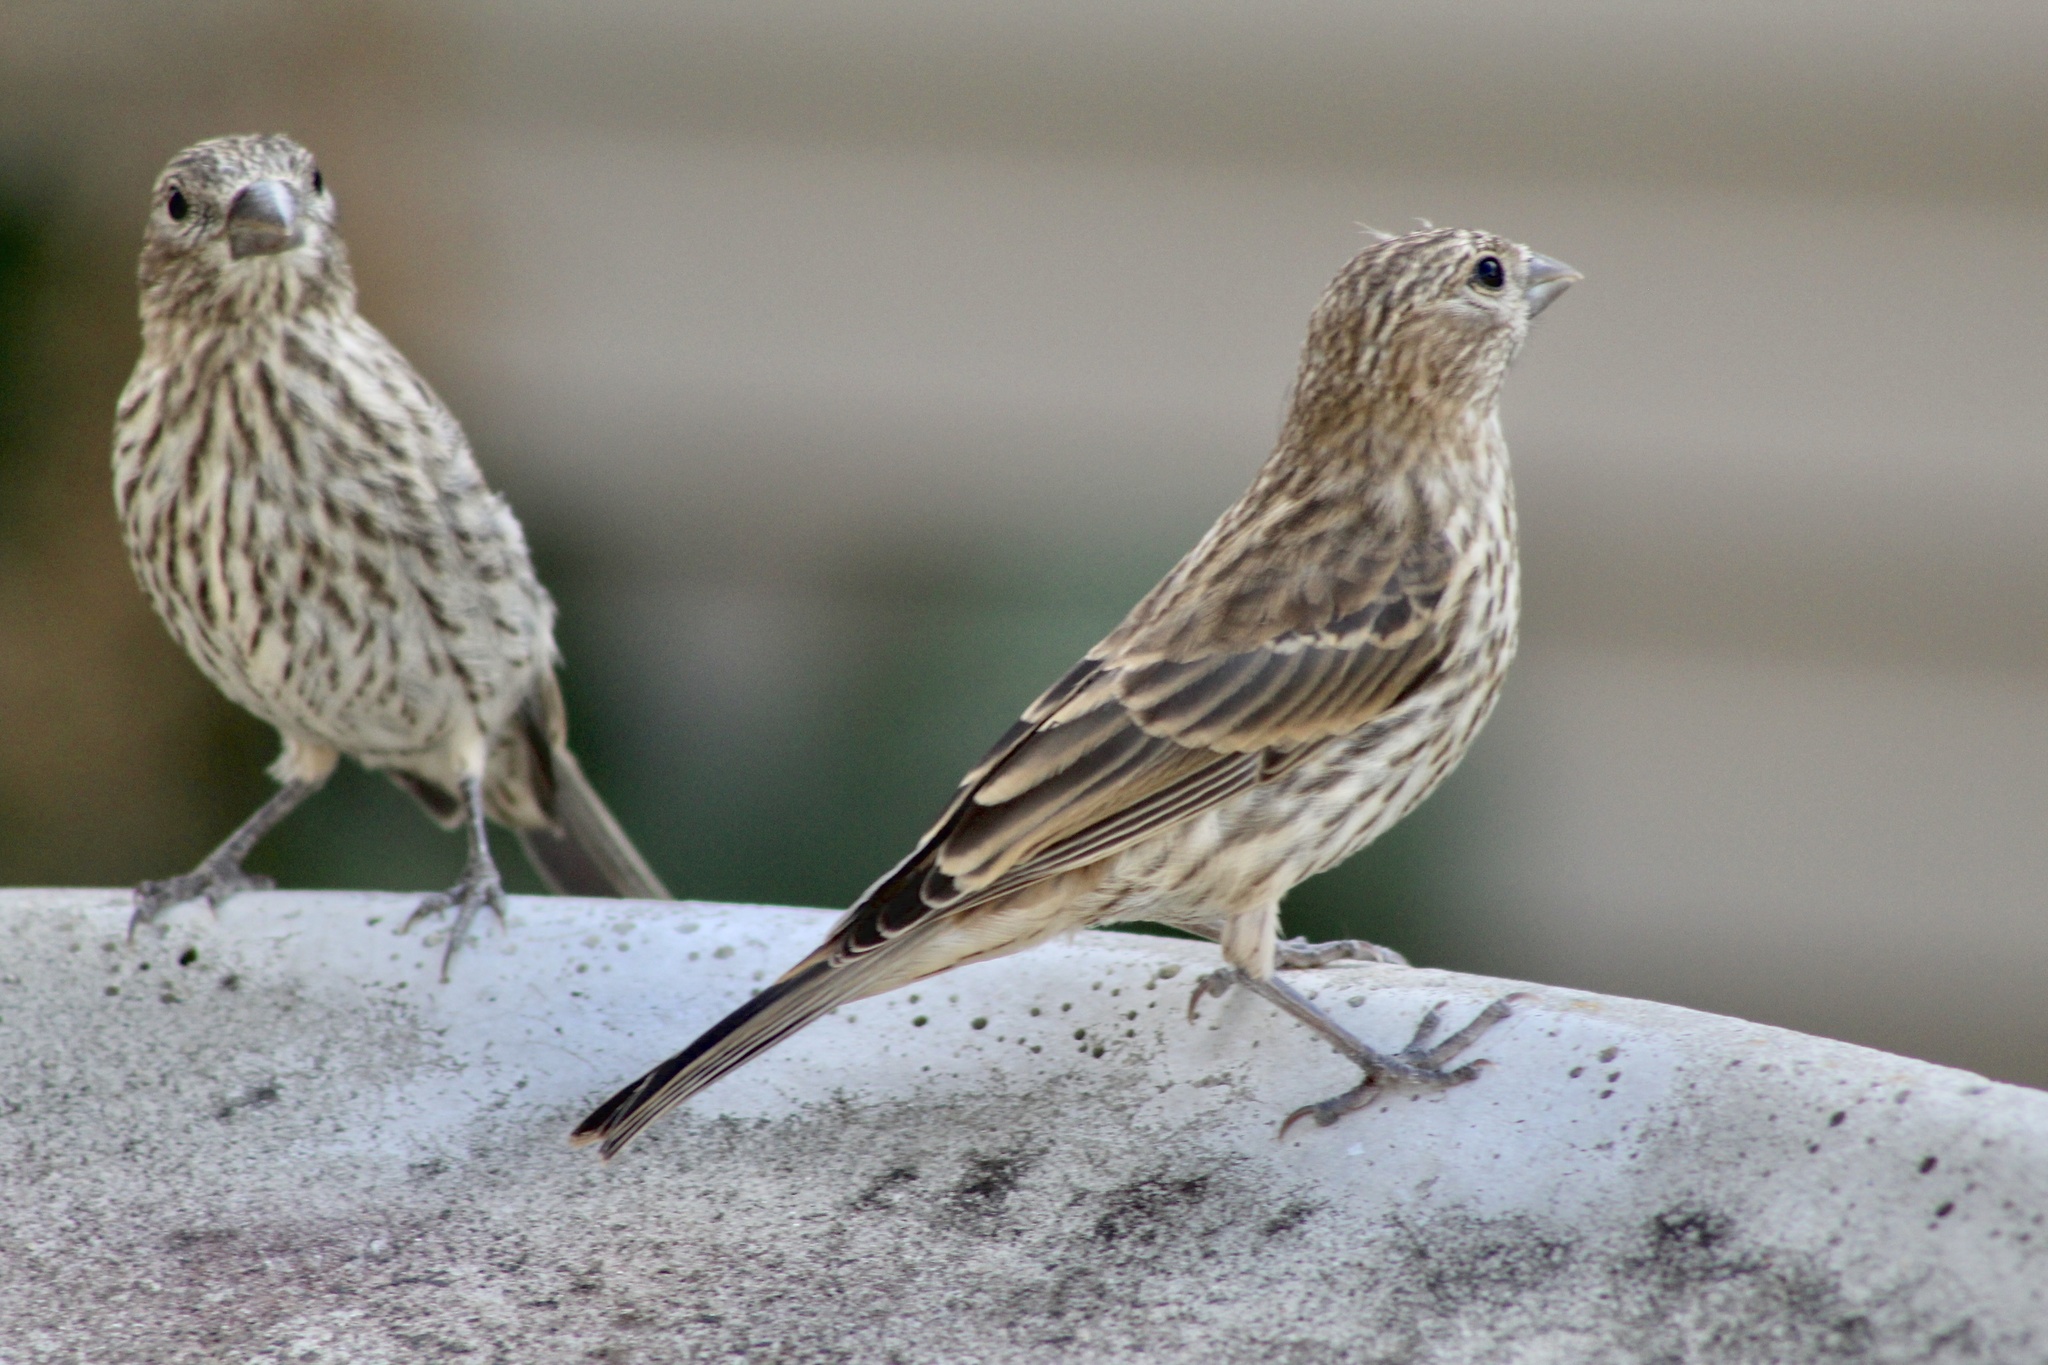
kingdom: Animalia
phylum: Chordata
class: Aves
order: Passeriformes
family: Fringillidae
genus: Haemorhous
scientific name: Haemorhous mexicanus
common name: House finch
